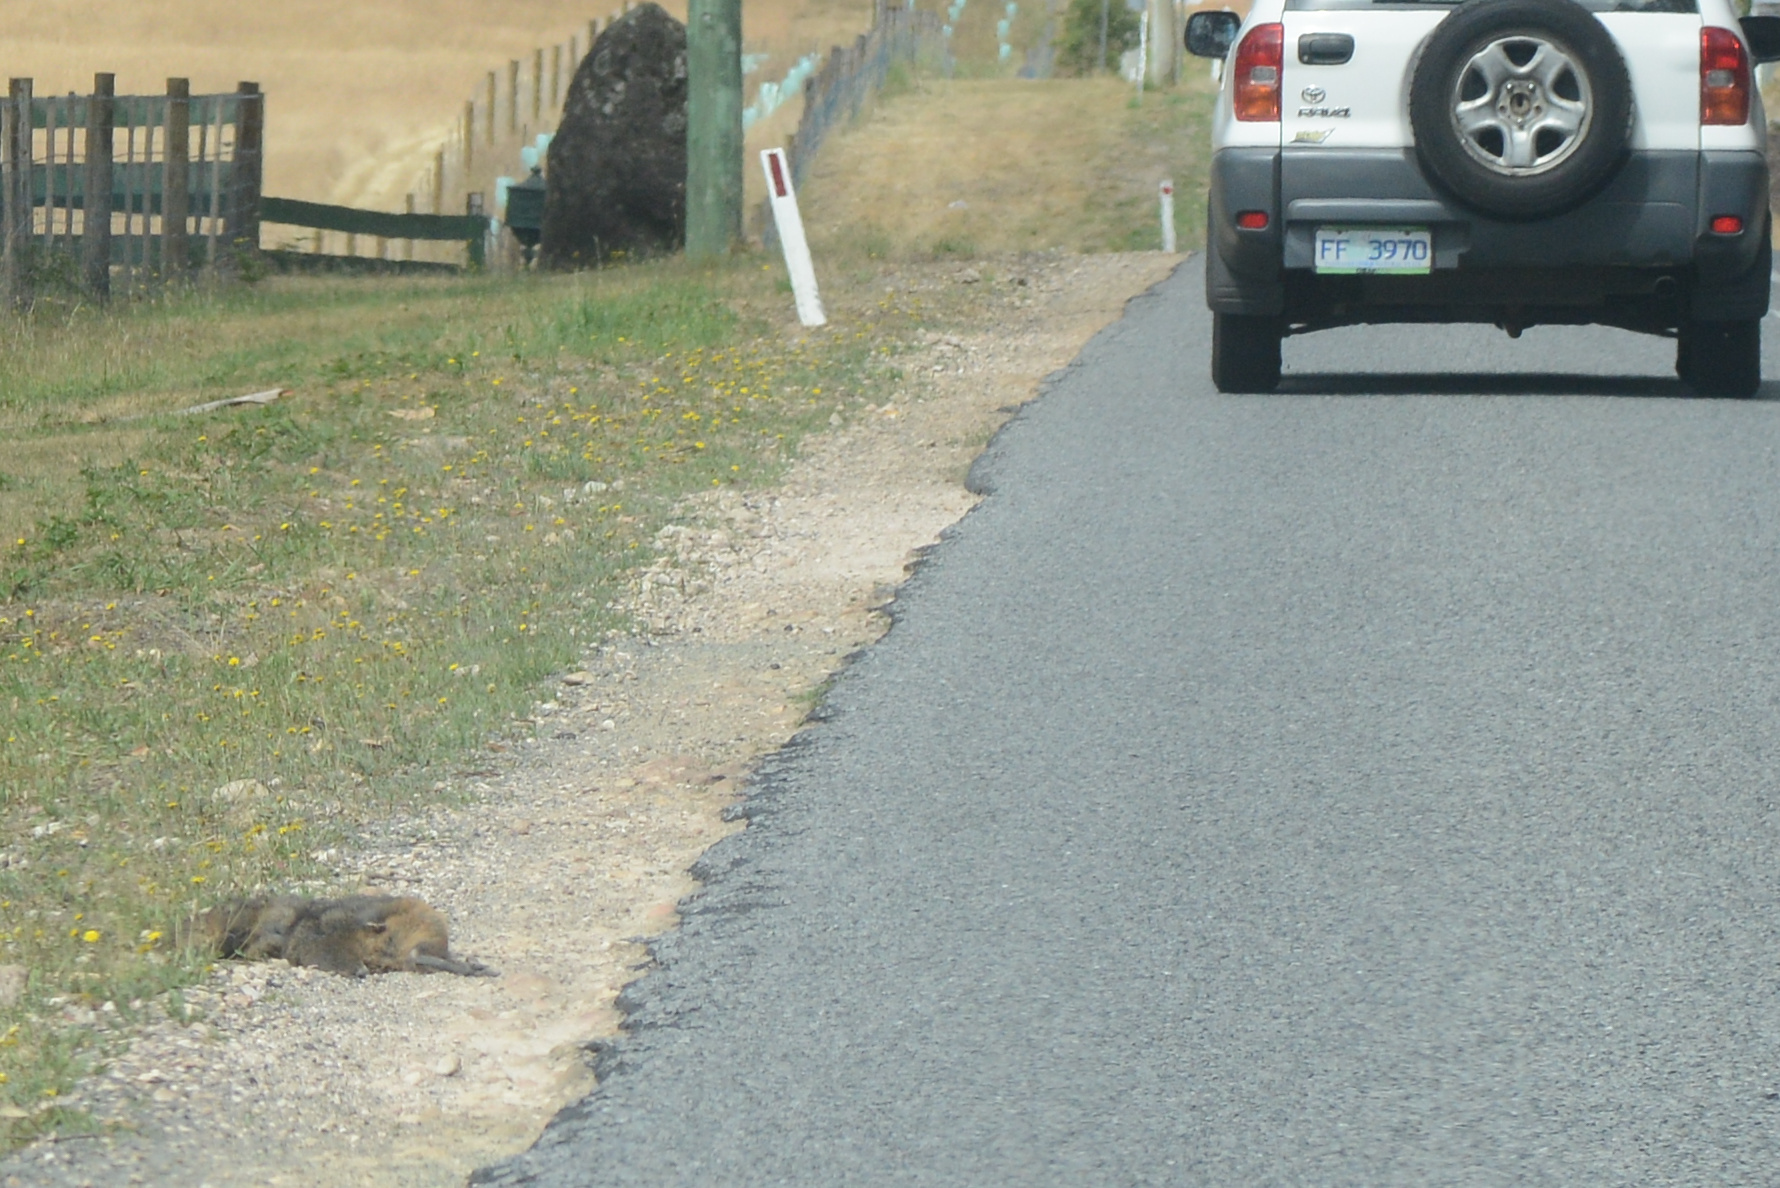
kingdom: Animalia
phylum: Chordata
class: Mammalia
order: Diprotodontia
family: Macropodidae
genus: Thylogale
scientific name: Thylogale billardierii
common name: Tasmanian pademelon
